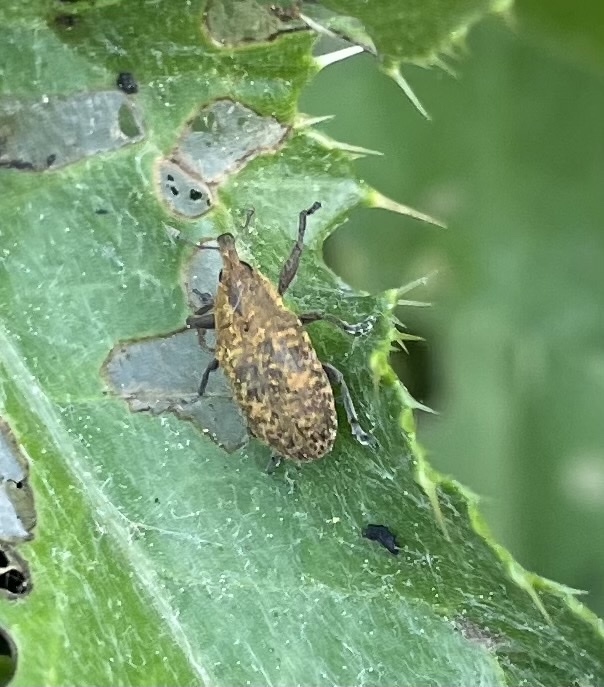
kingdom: Animalia
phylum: Arthropoda
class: Insecta
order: Coleoptera
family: Curculionidae
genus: Larinus
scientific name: Larinus carlinae
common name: Weevil
